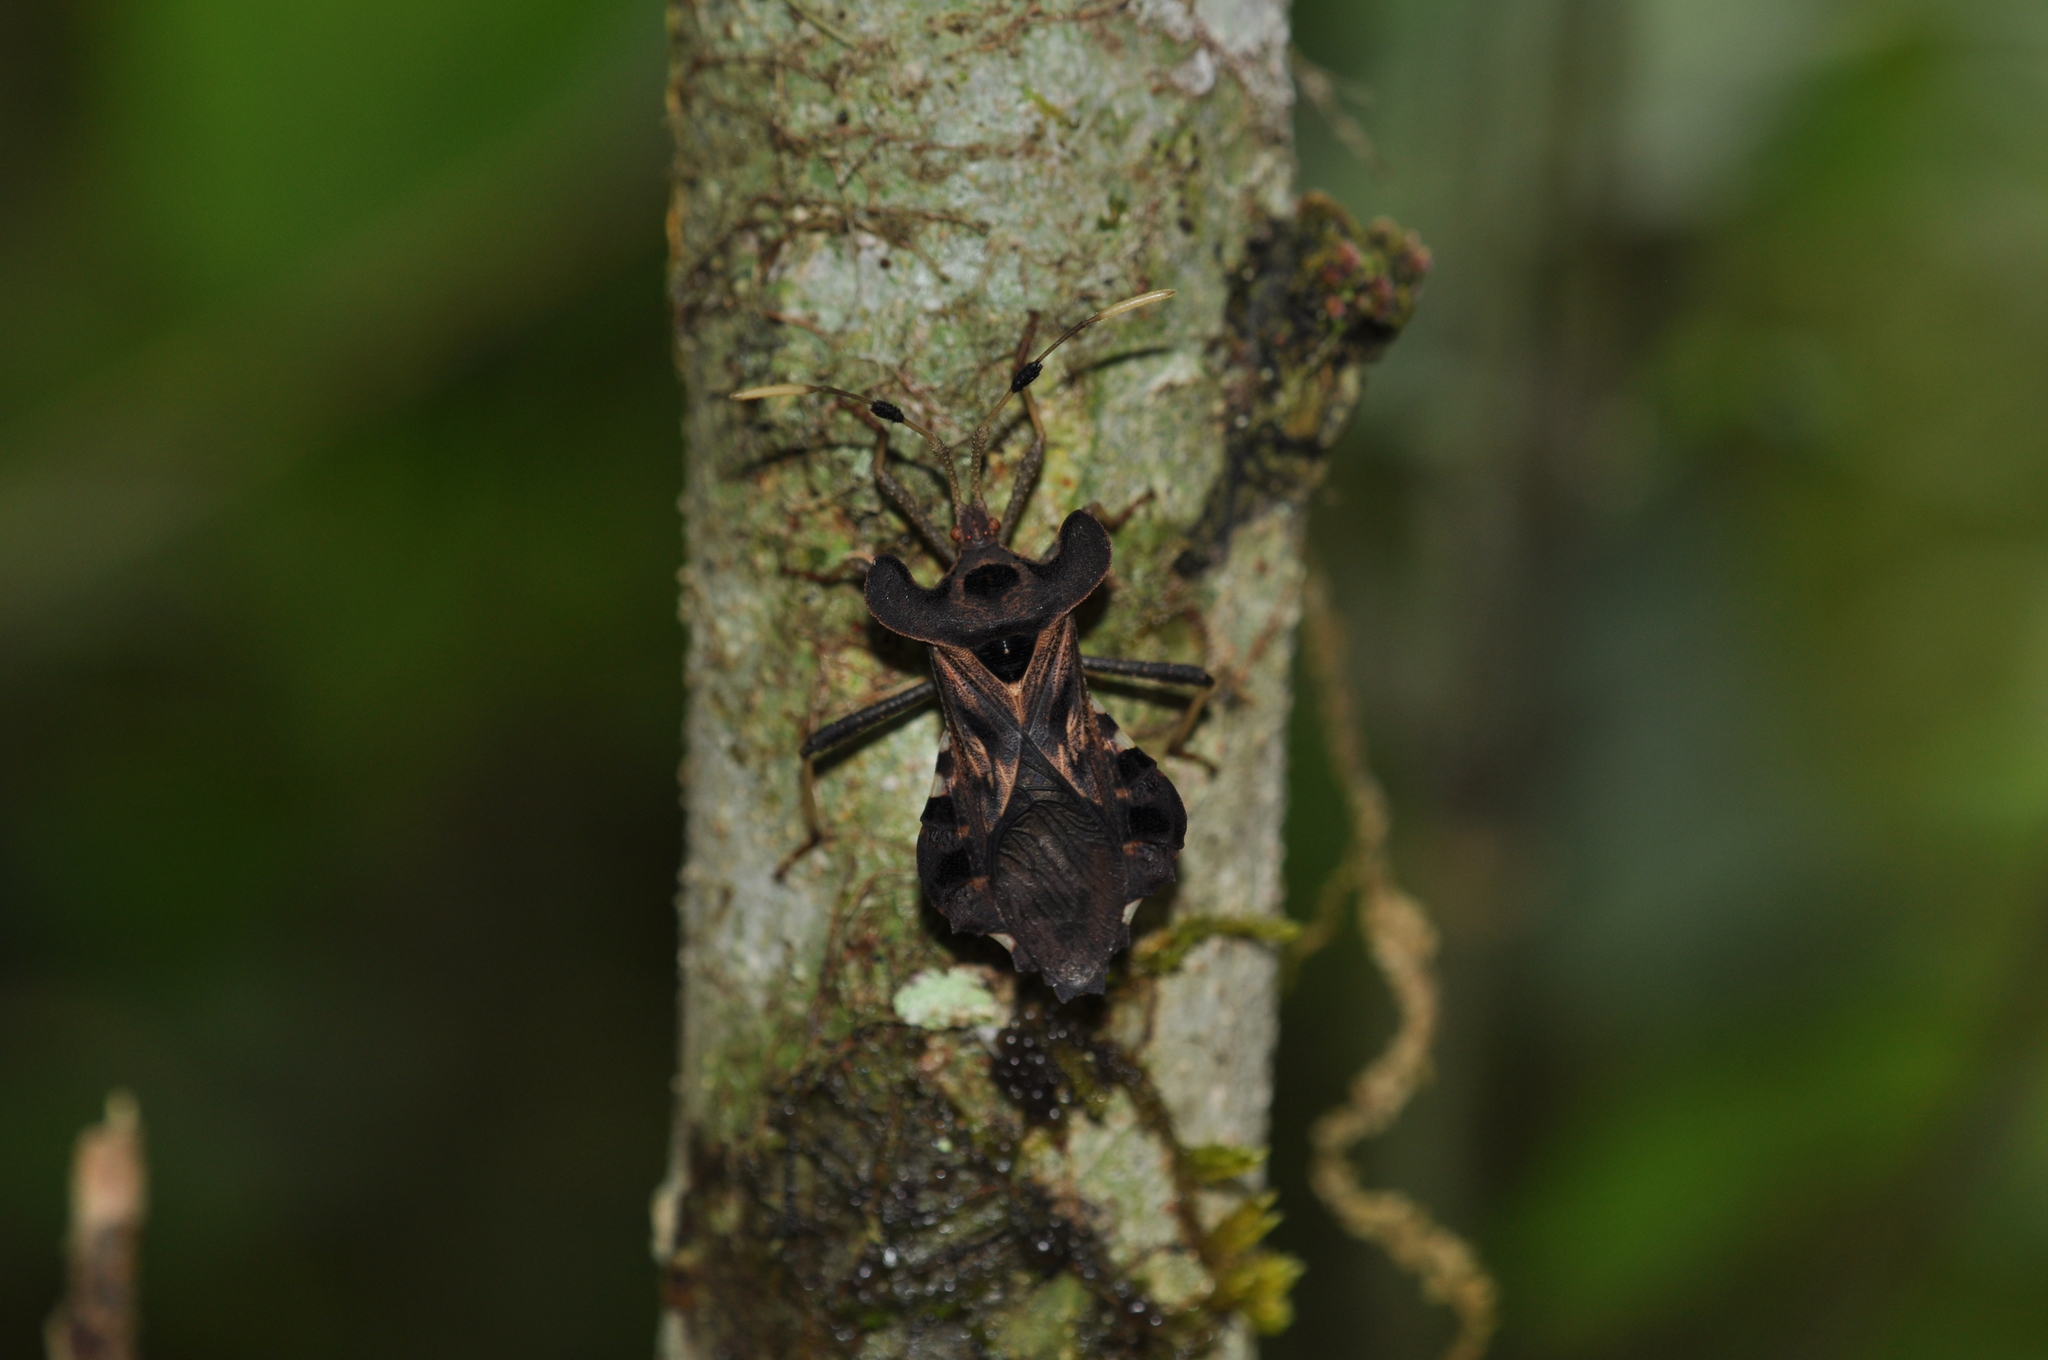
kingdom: Animalia
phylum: Arthropoda
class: Insecta
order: Hemiptera
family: Coreidae
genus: Odontorhopala
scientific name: Odontorhopala callosa
